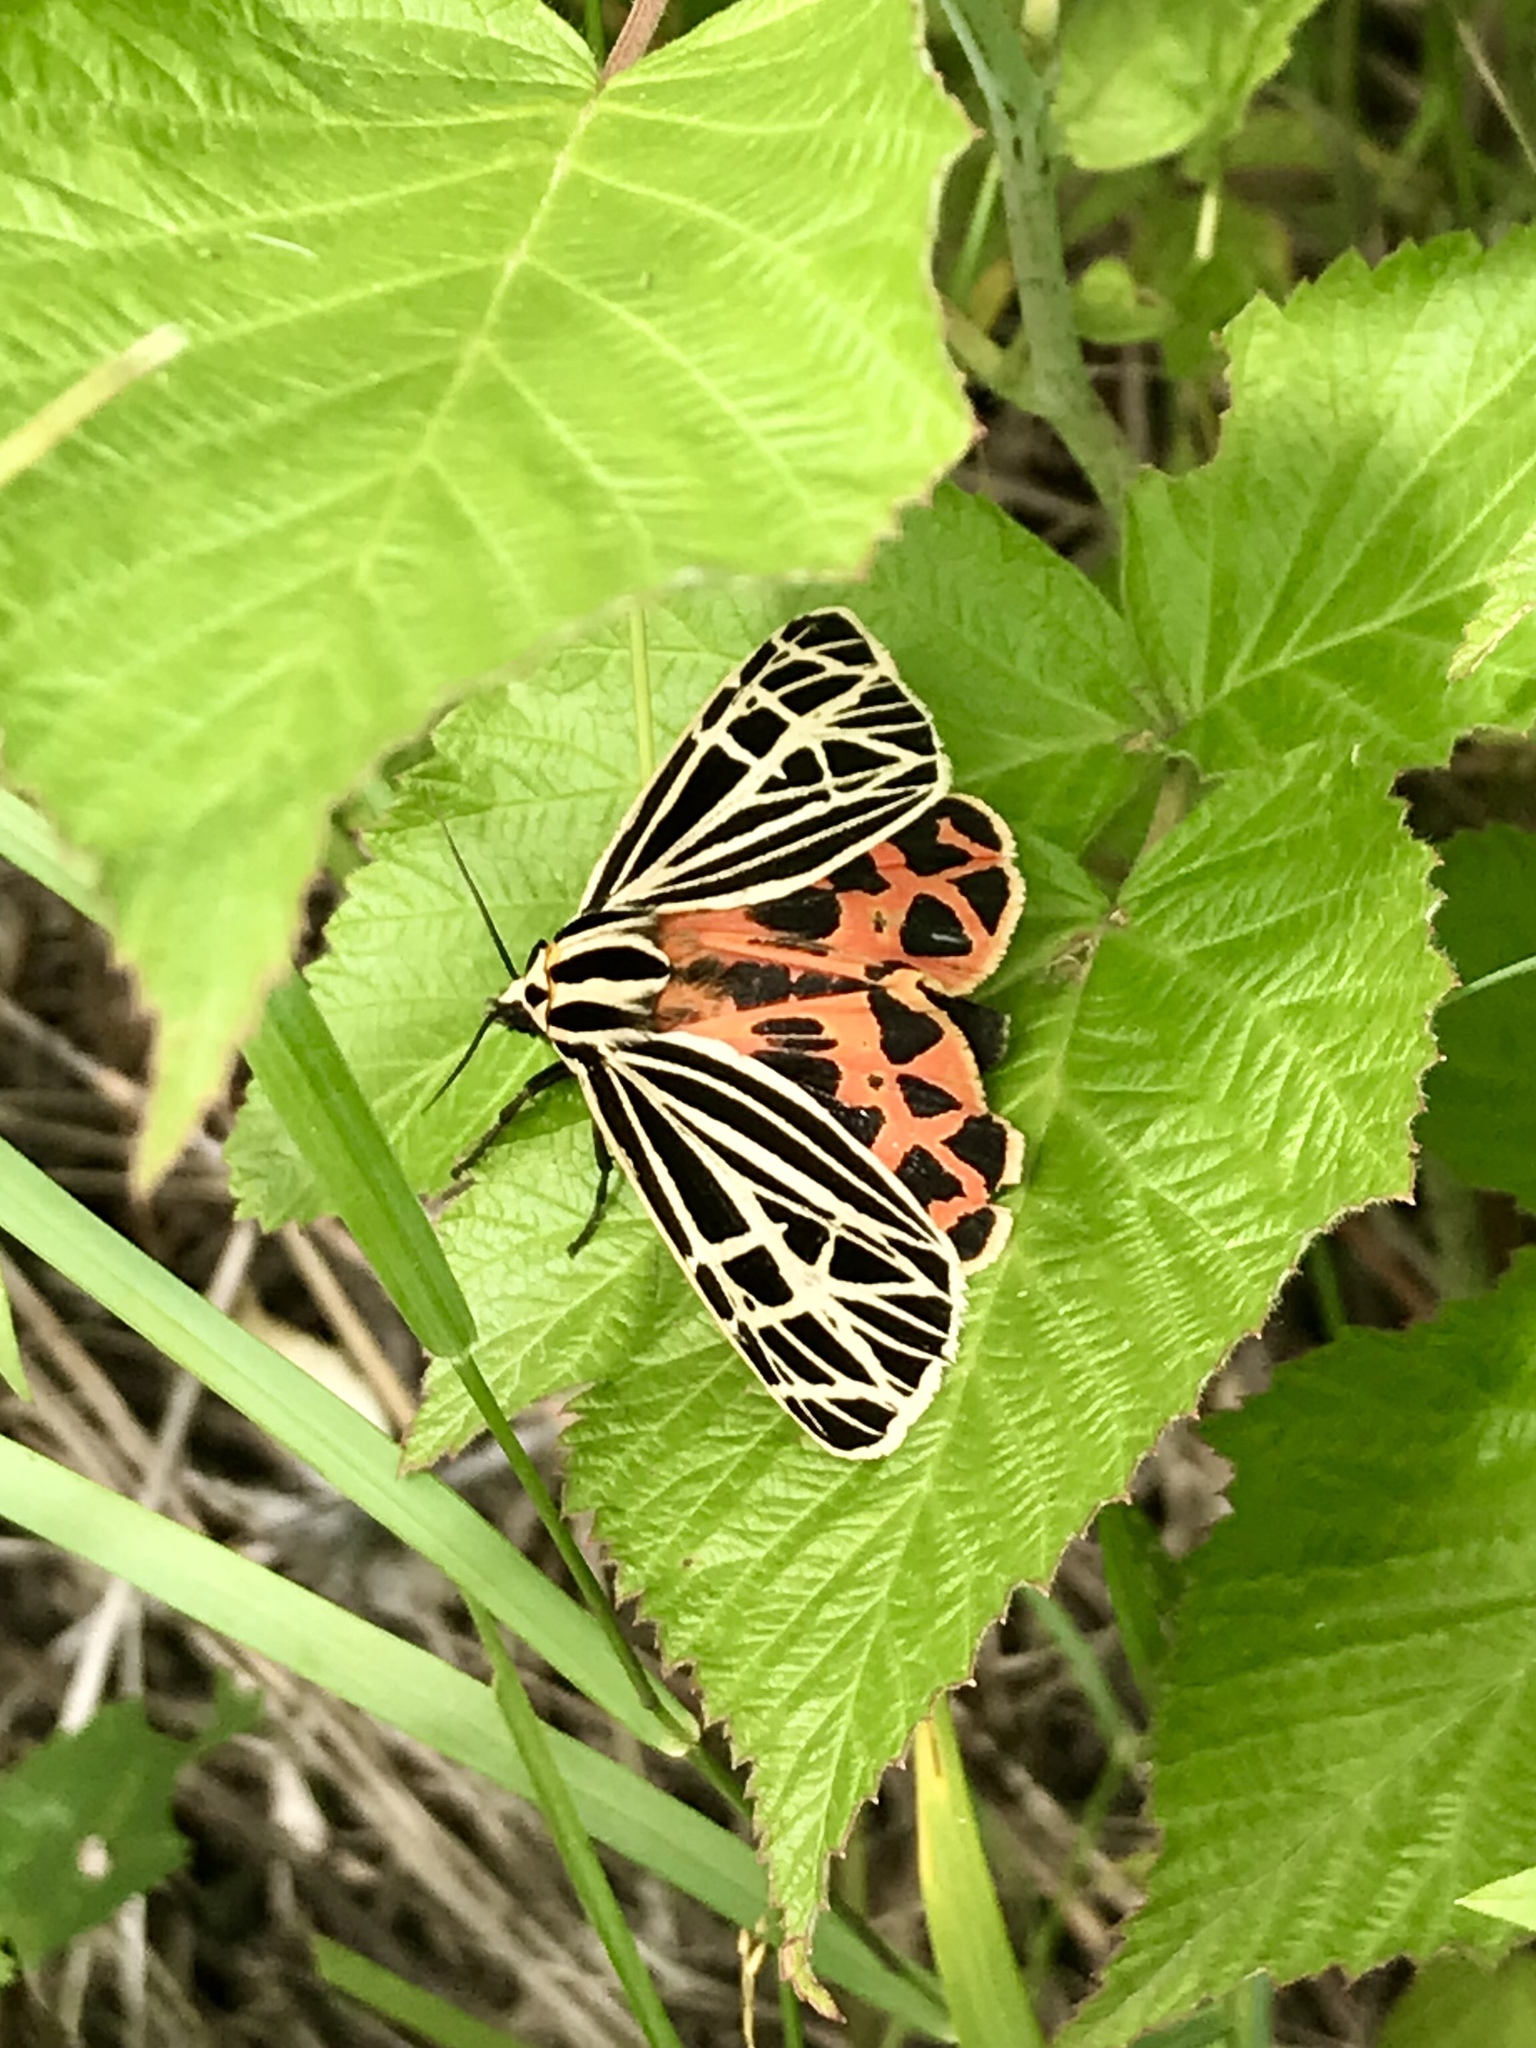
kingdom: Animalia
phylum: Arthropoda
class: Insecta
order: Lepidoptera
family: Erebidae
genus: Grammia
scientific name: Grammia virgo
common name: Virgin tiger moth
